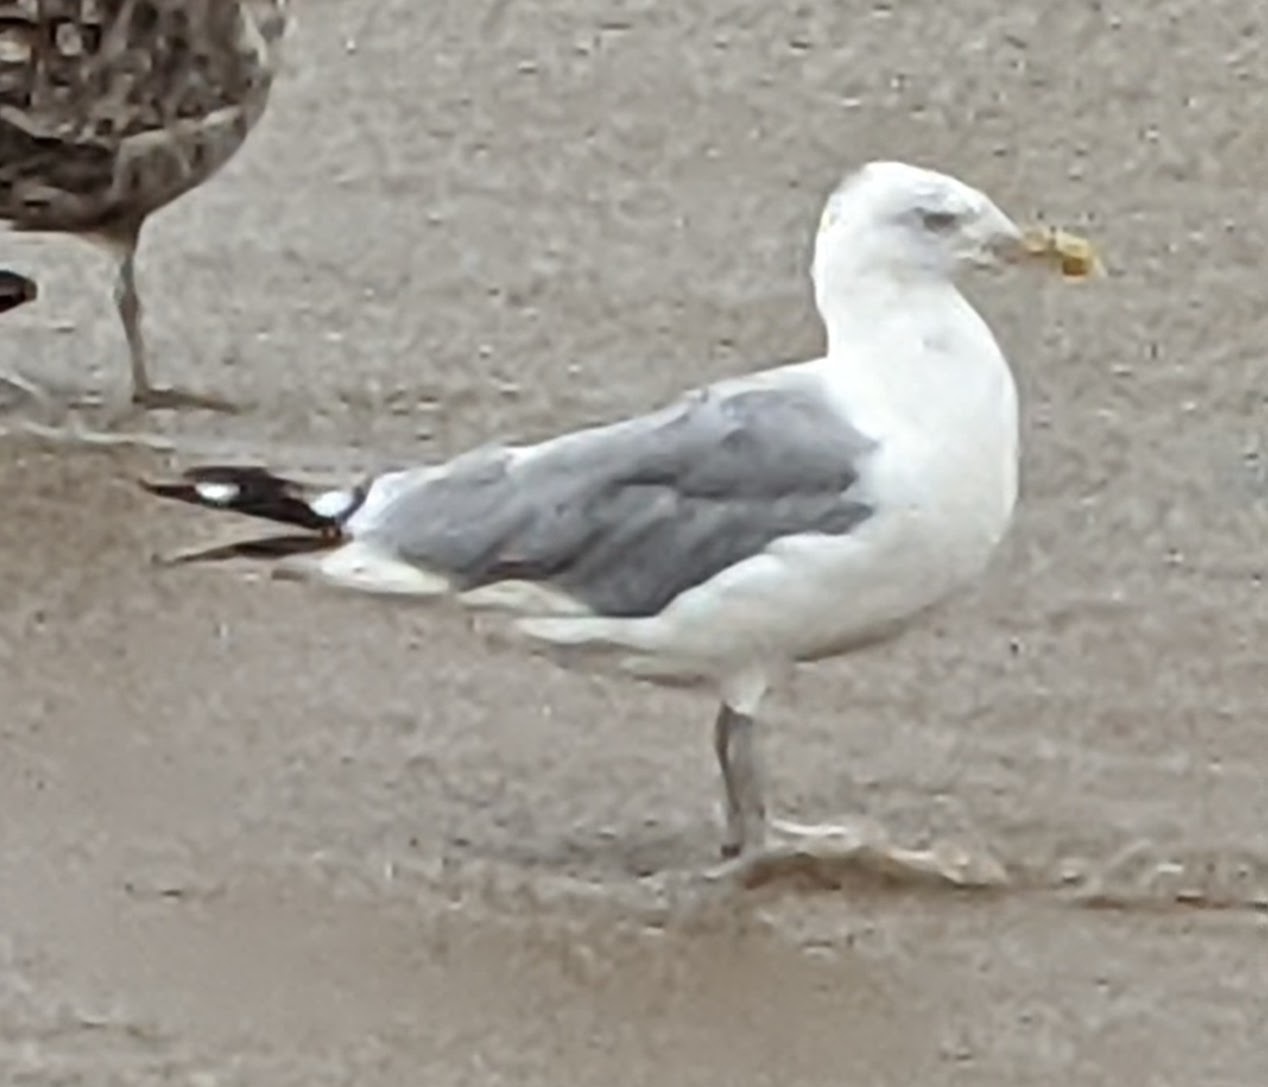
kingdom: Animalia
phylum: Chordata
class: Aves
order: Charadriiformes
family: Laridae
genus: Larus
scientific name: Larus argentatus
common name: Herring gull
